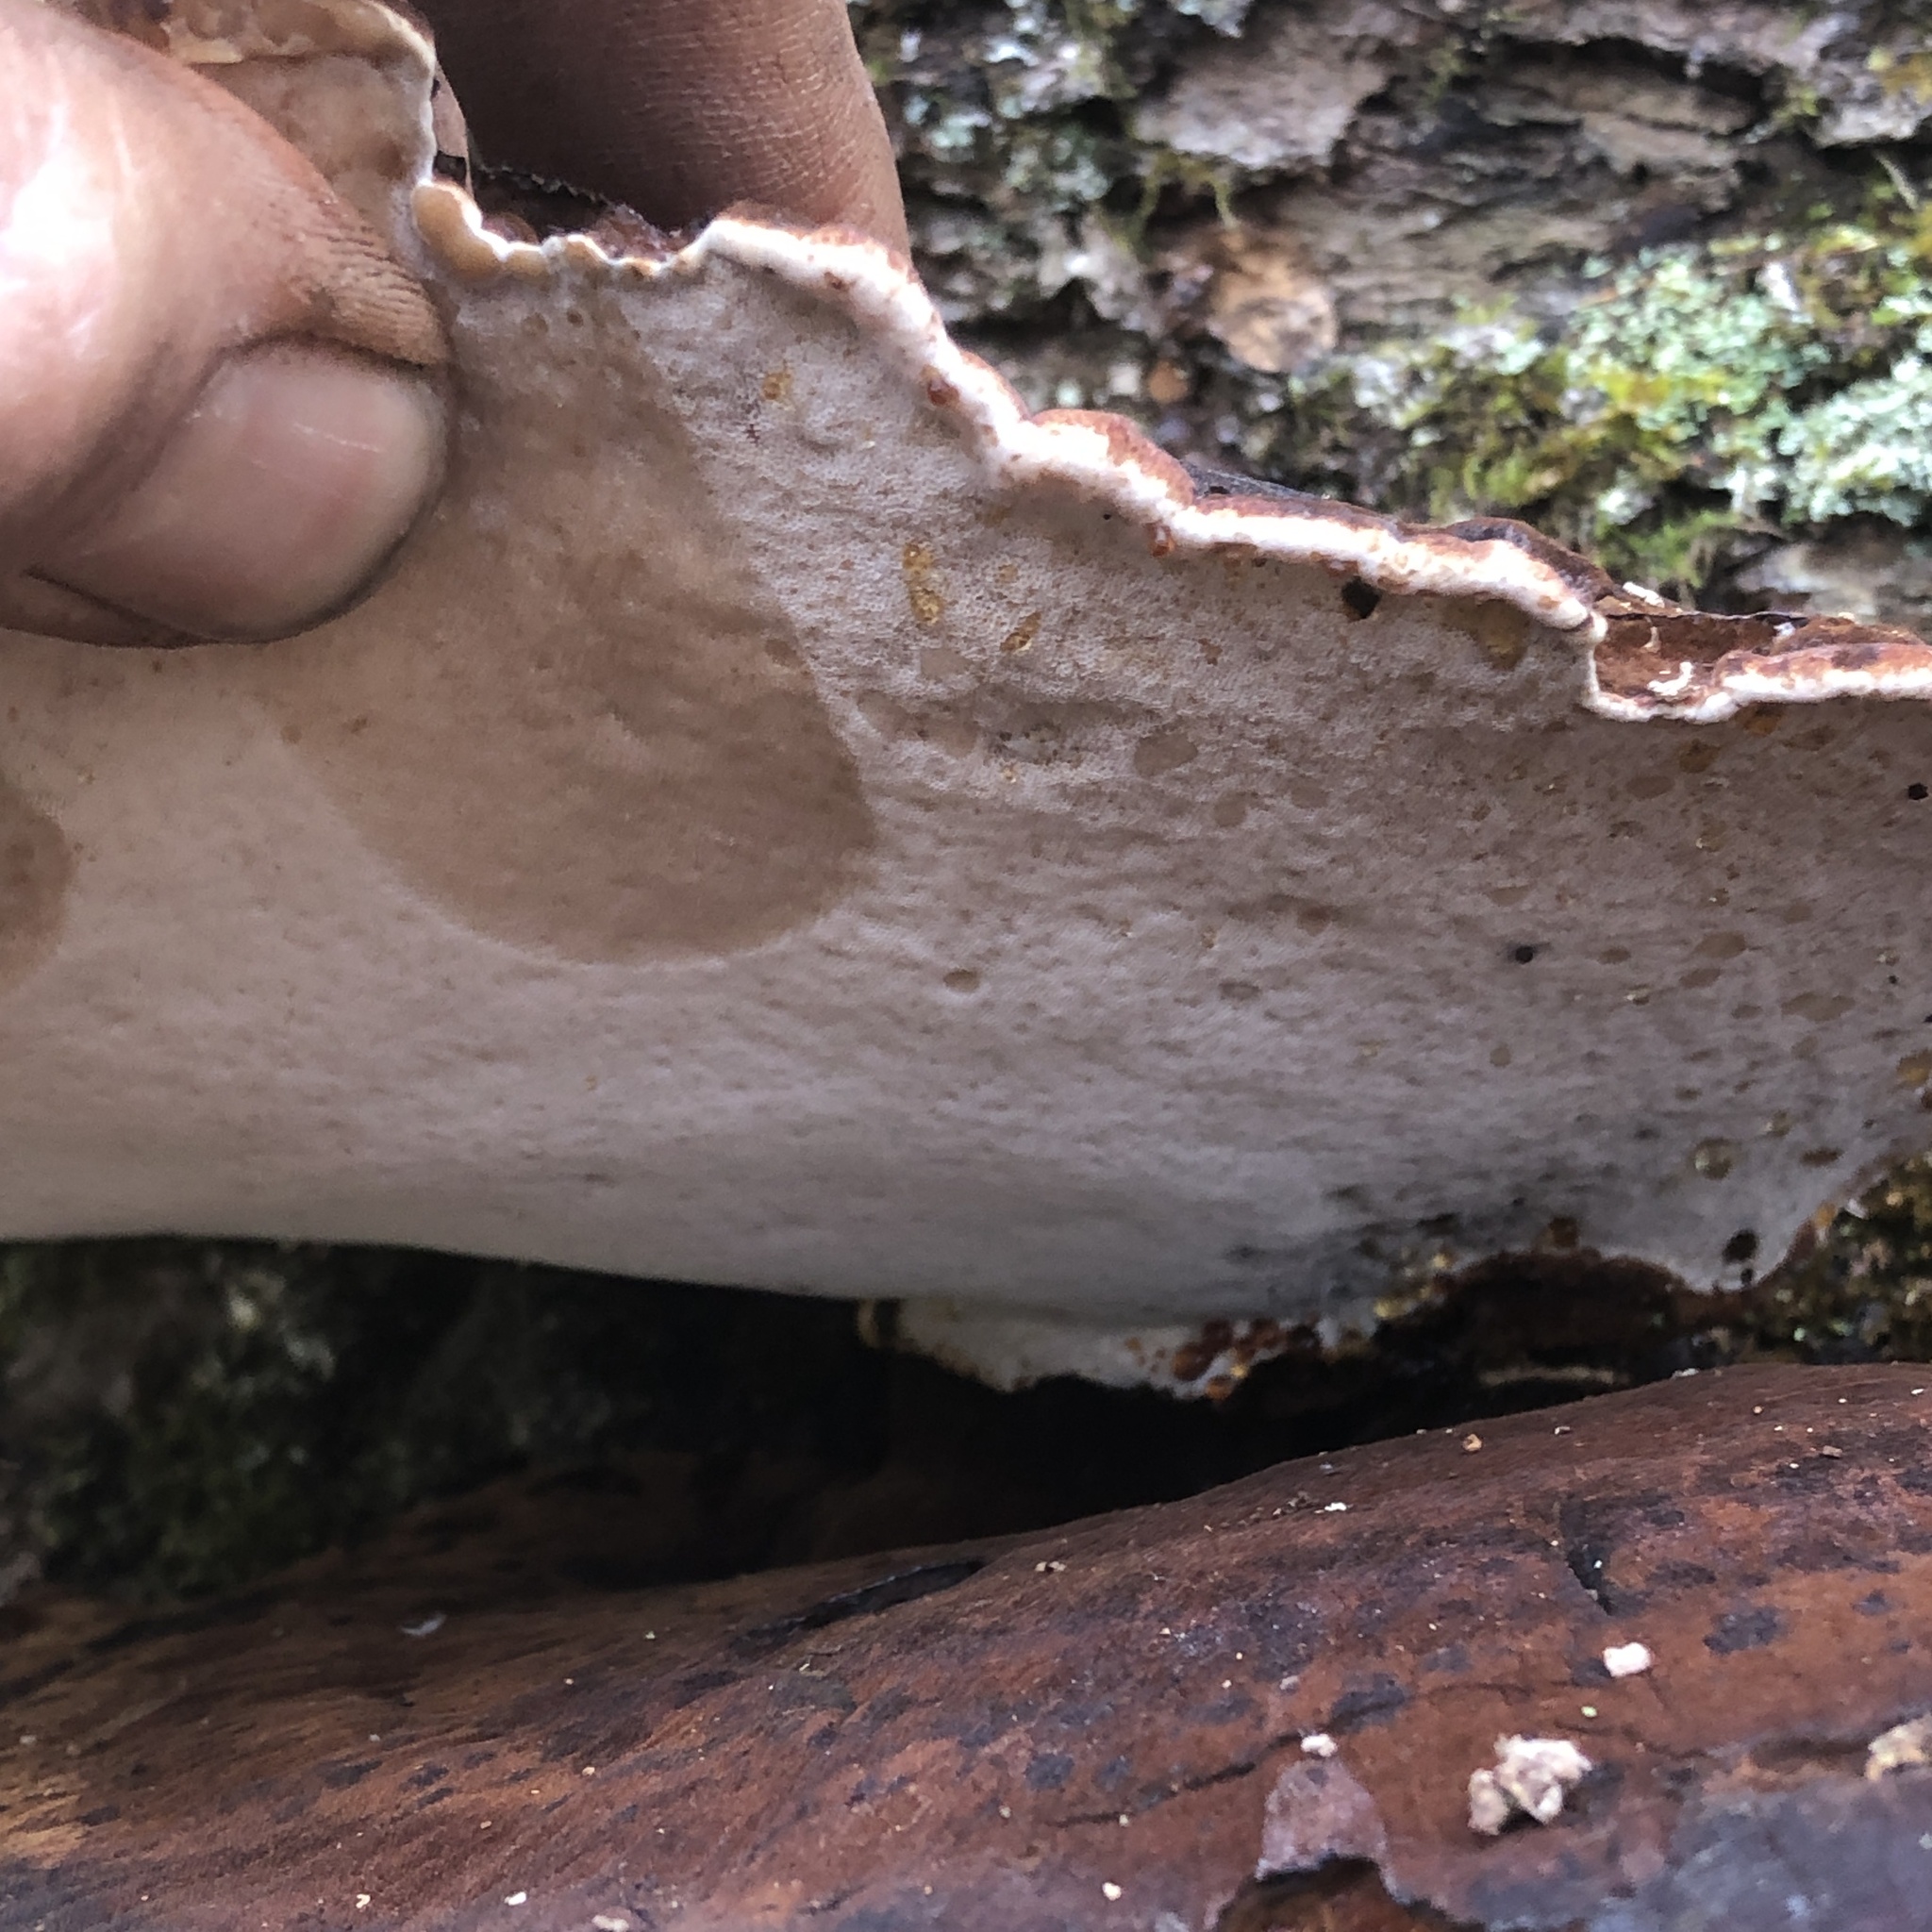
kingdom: Fungi
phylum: Basidiomycota
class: Agaricomycetes
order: Polyporales
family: Ischnodermataceae
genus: Ischnoderma
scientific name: Ischnoderma resinosum
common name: Resinous polypore
